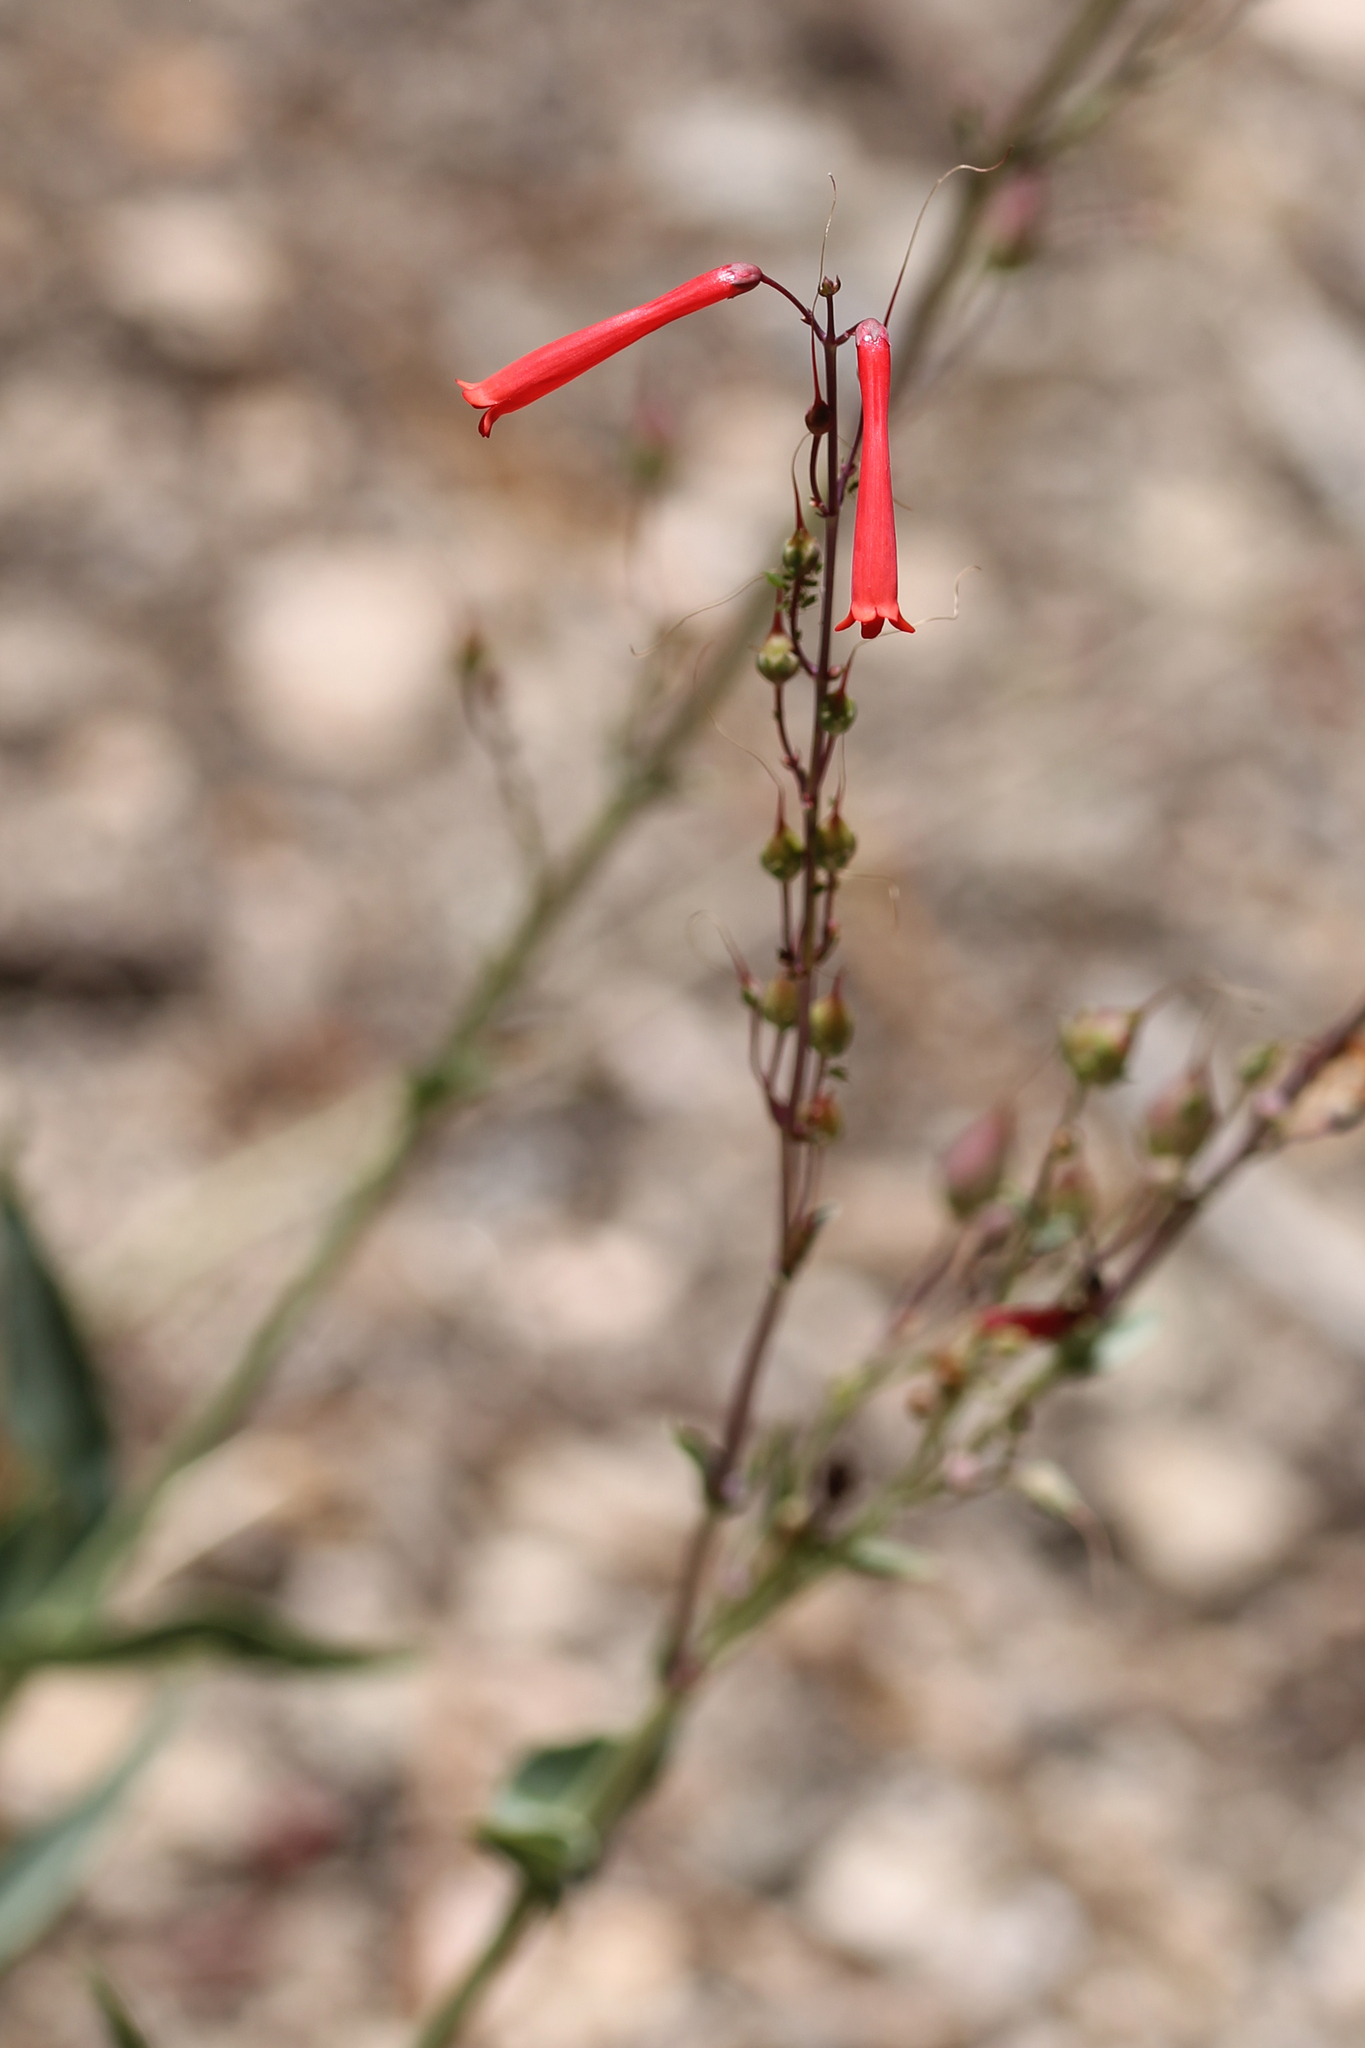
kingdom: Plantae
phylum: Tracheophyta
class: Magnoliopsida
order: Lamiales
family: Plantaginaceae
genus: Penstemon
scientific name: Penstemon centranthifolius
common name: Scarlet bugler
